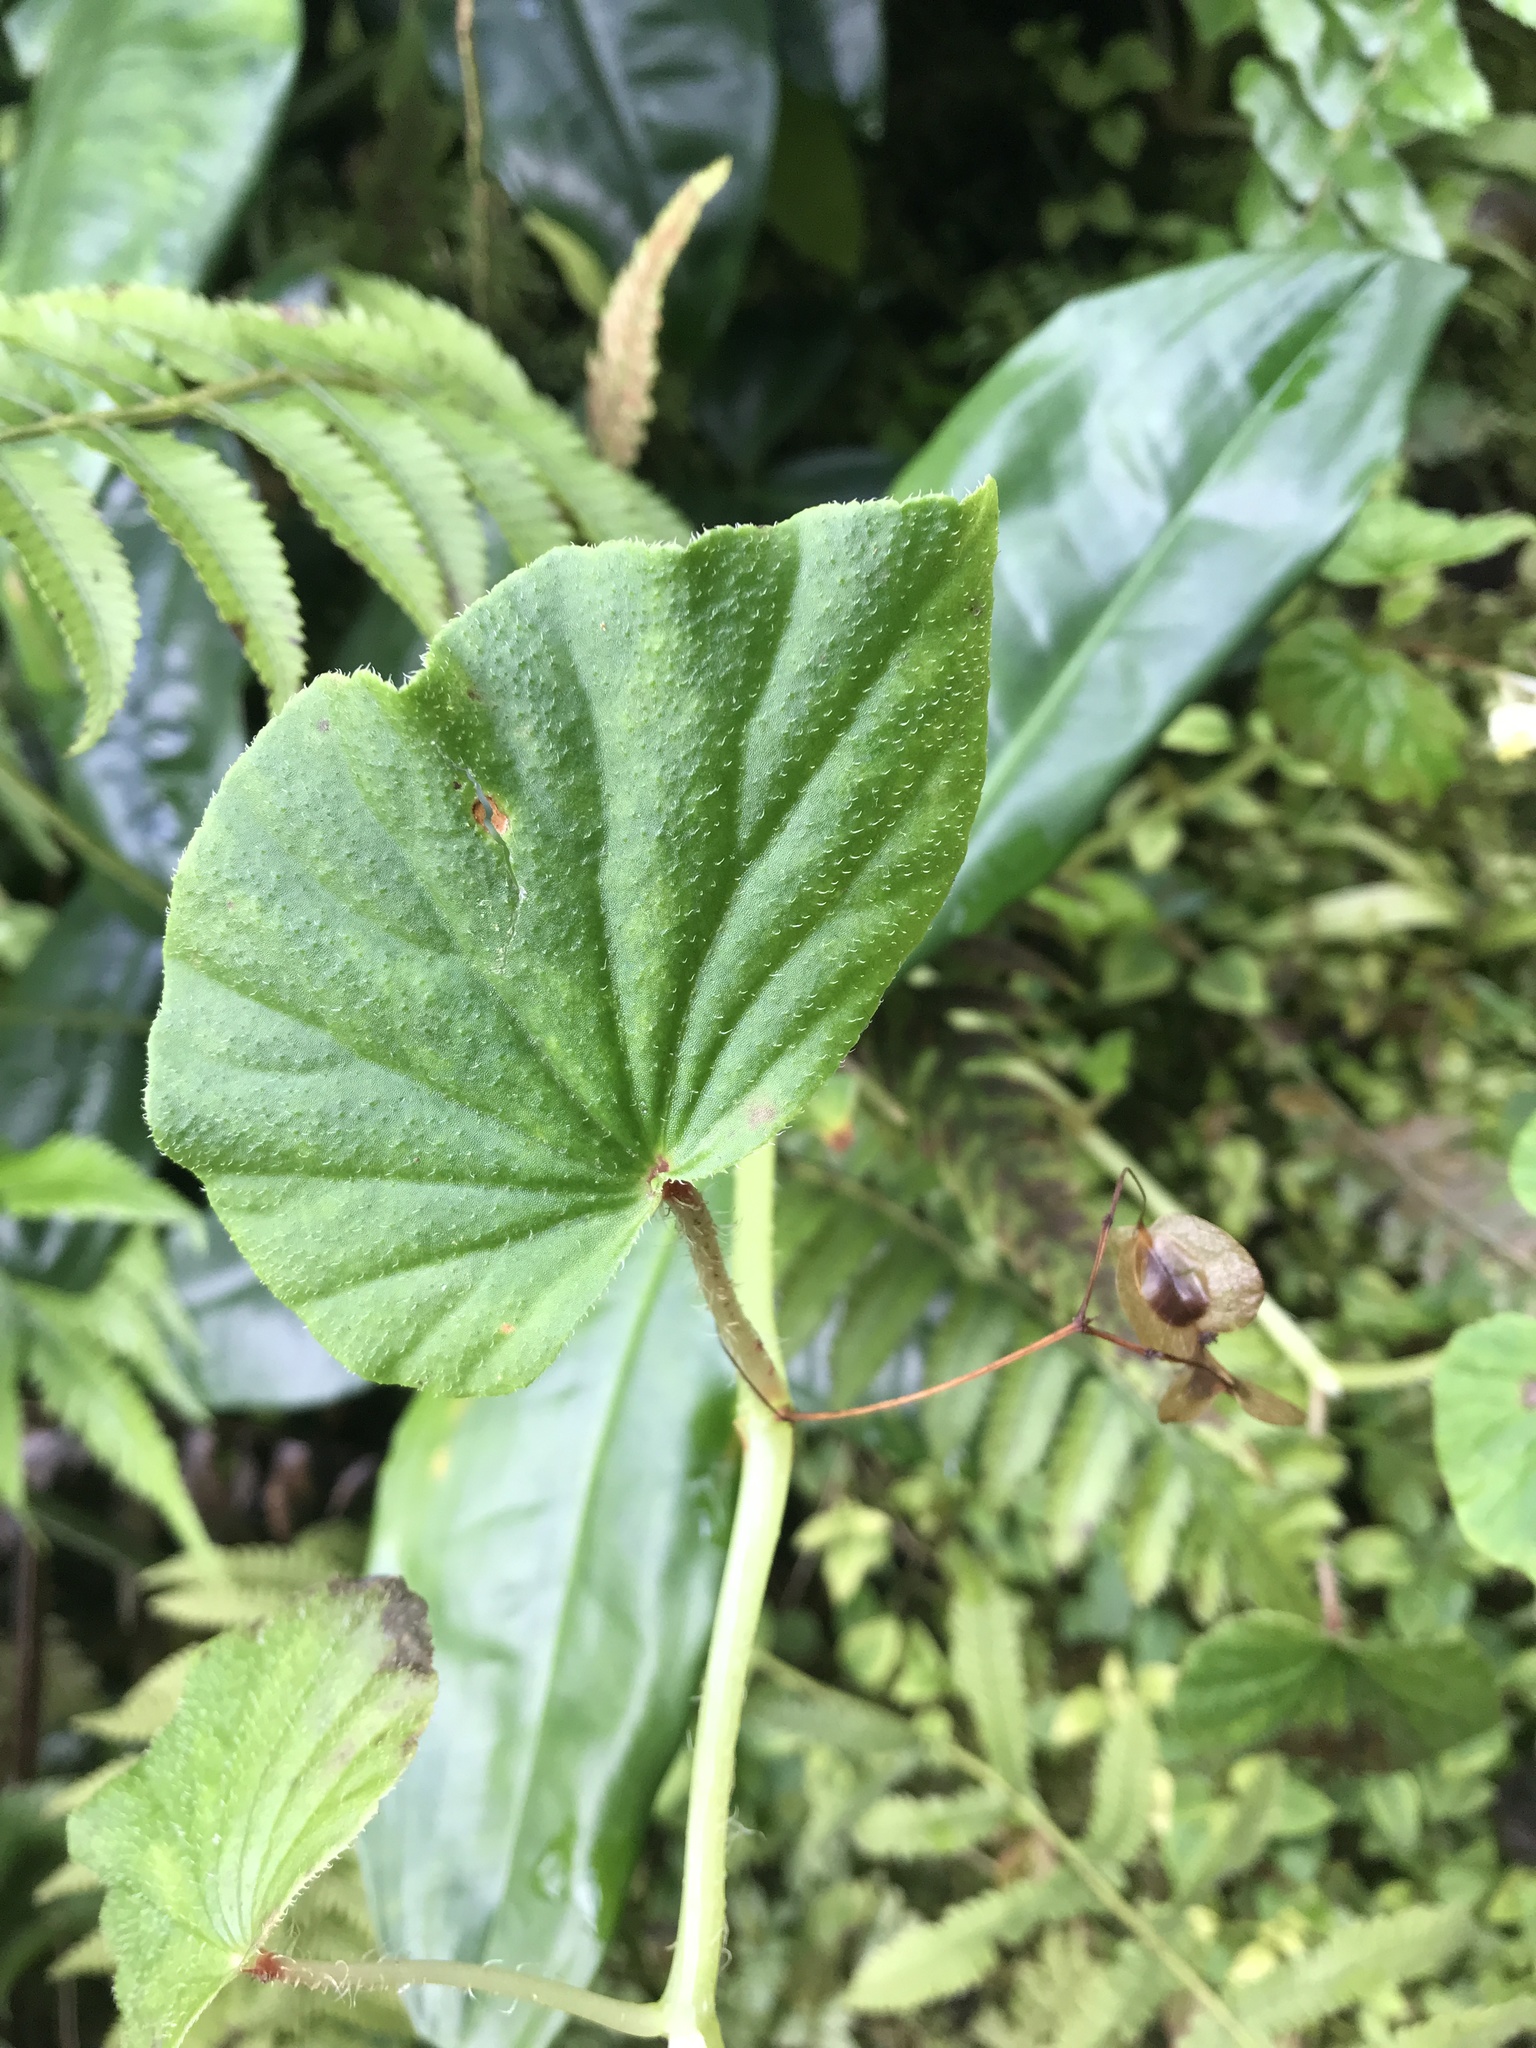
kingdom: Plantae
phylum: Tracheophyta
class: Magnoliopsida
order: Cucurbitales
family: Begoniaceae
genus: Begonia
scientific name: Begonia hirtella
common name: Brazilian begonia
